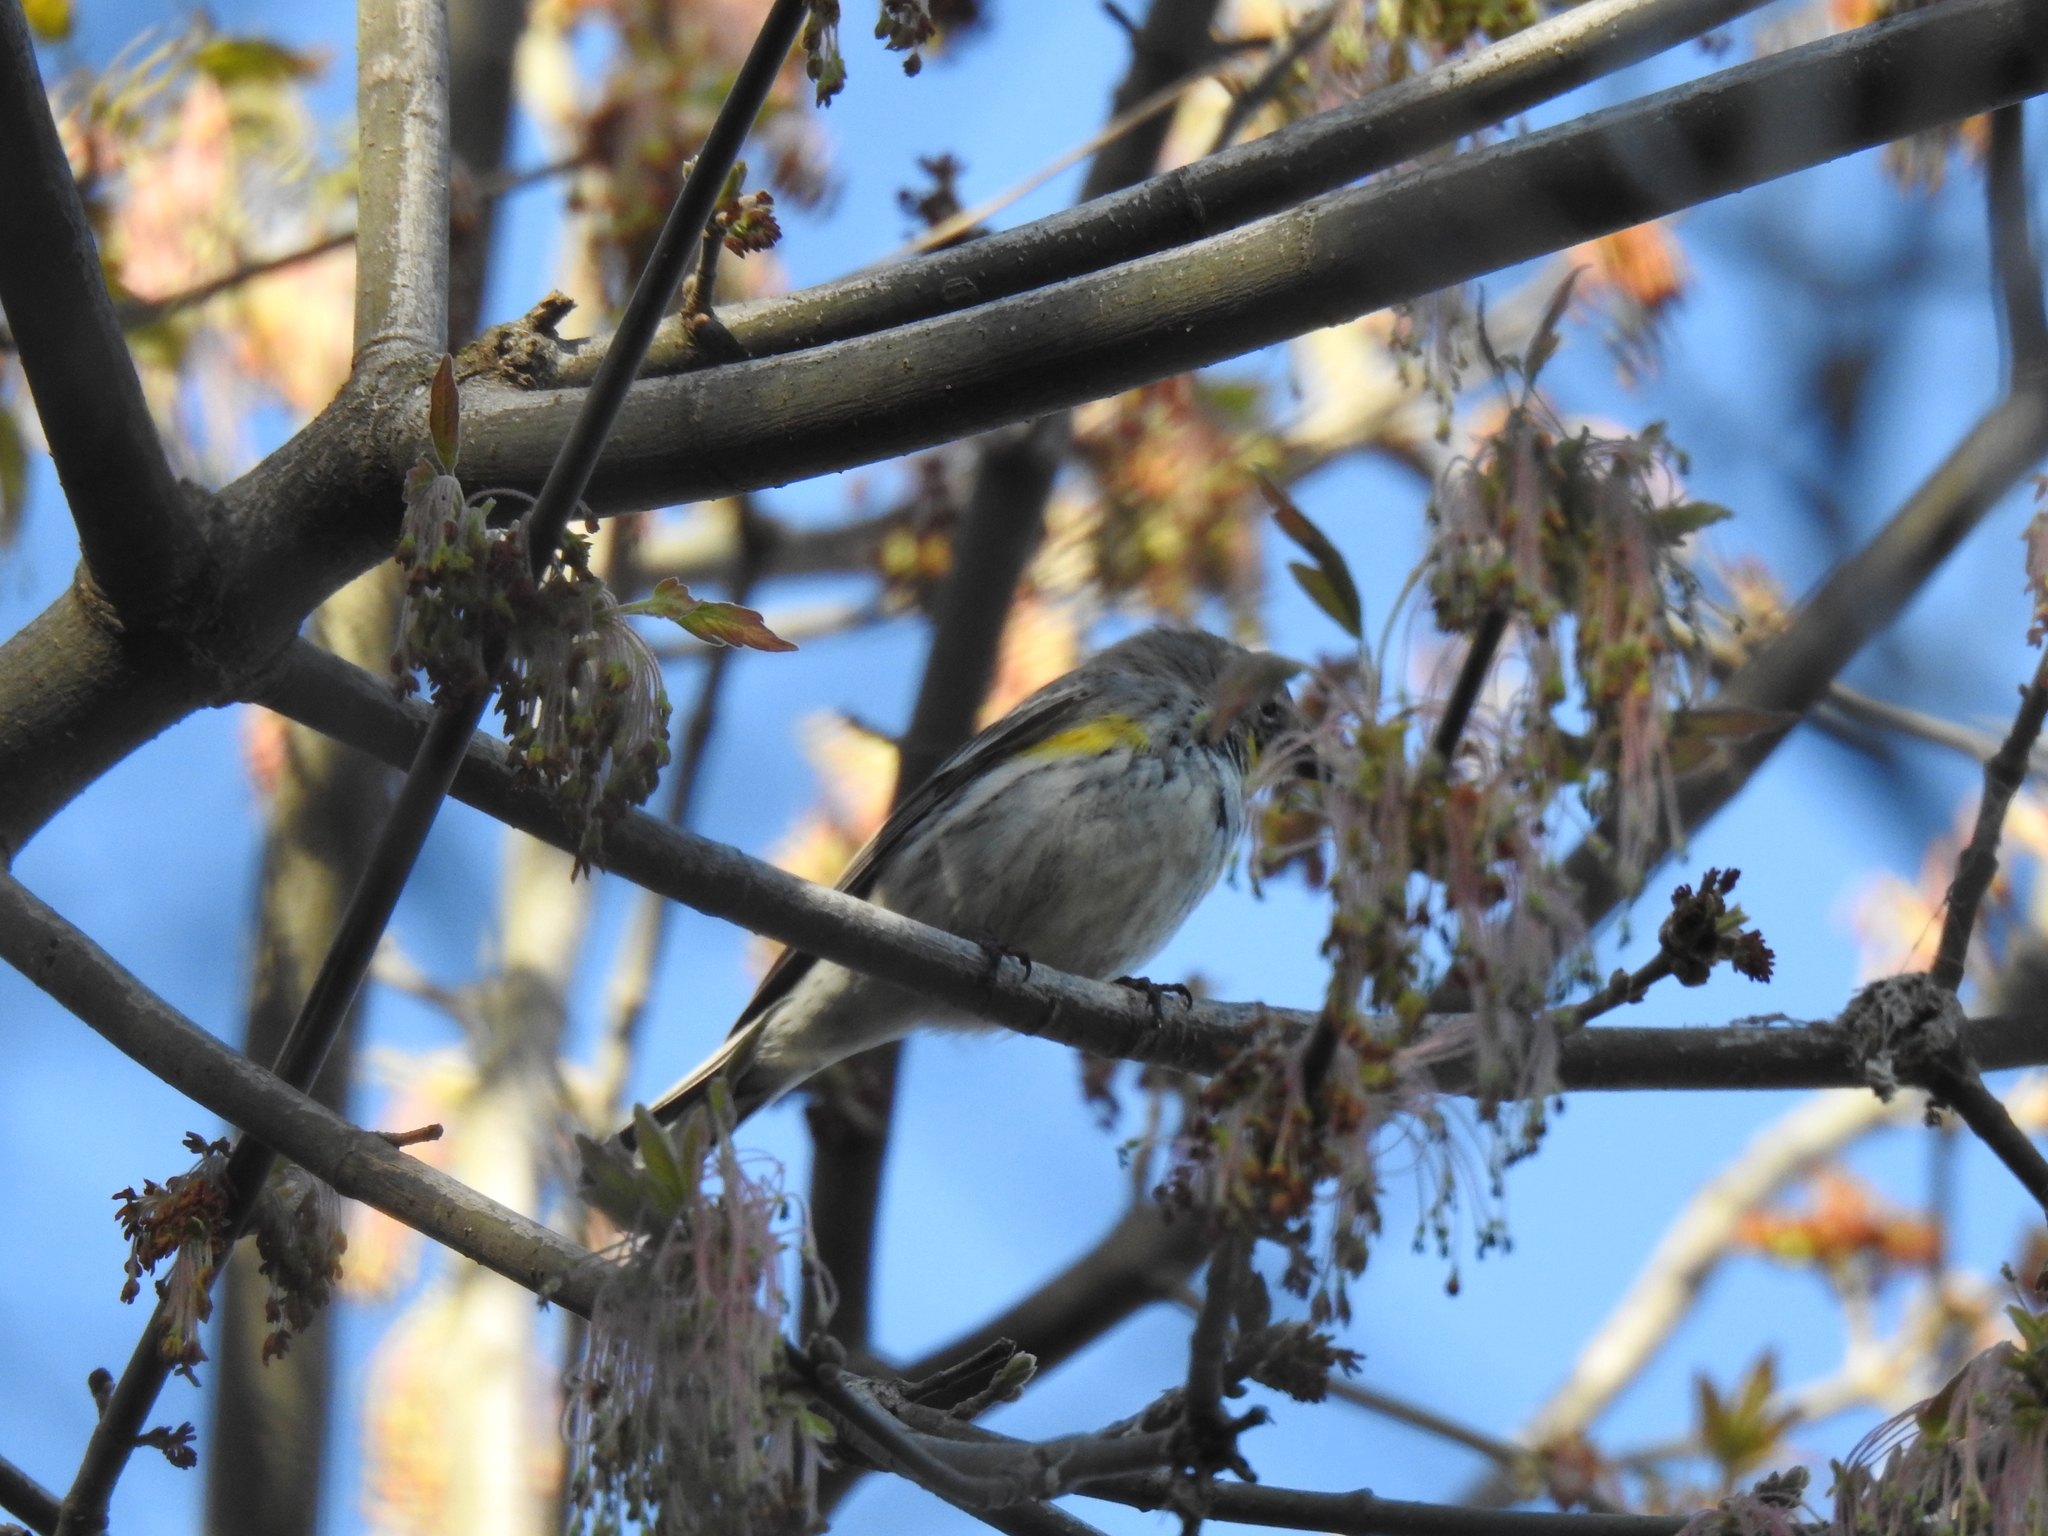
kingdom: Animalia
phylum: Chordata
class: Aves
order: Passeriformes
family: Parulidae
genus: Setophaga
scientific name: Setophaga coronata
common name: Myrtle warbler
